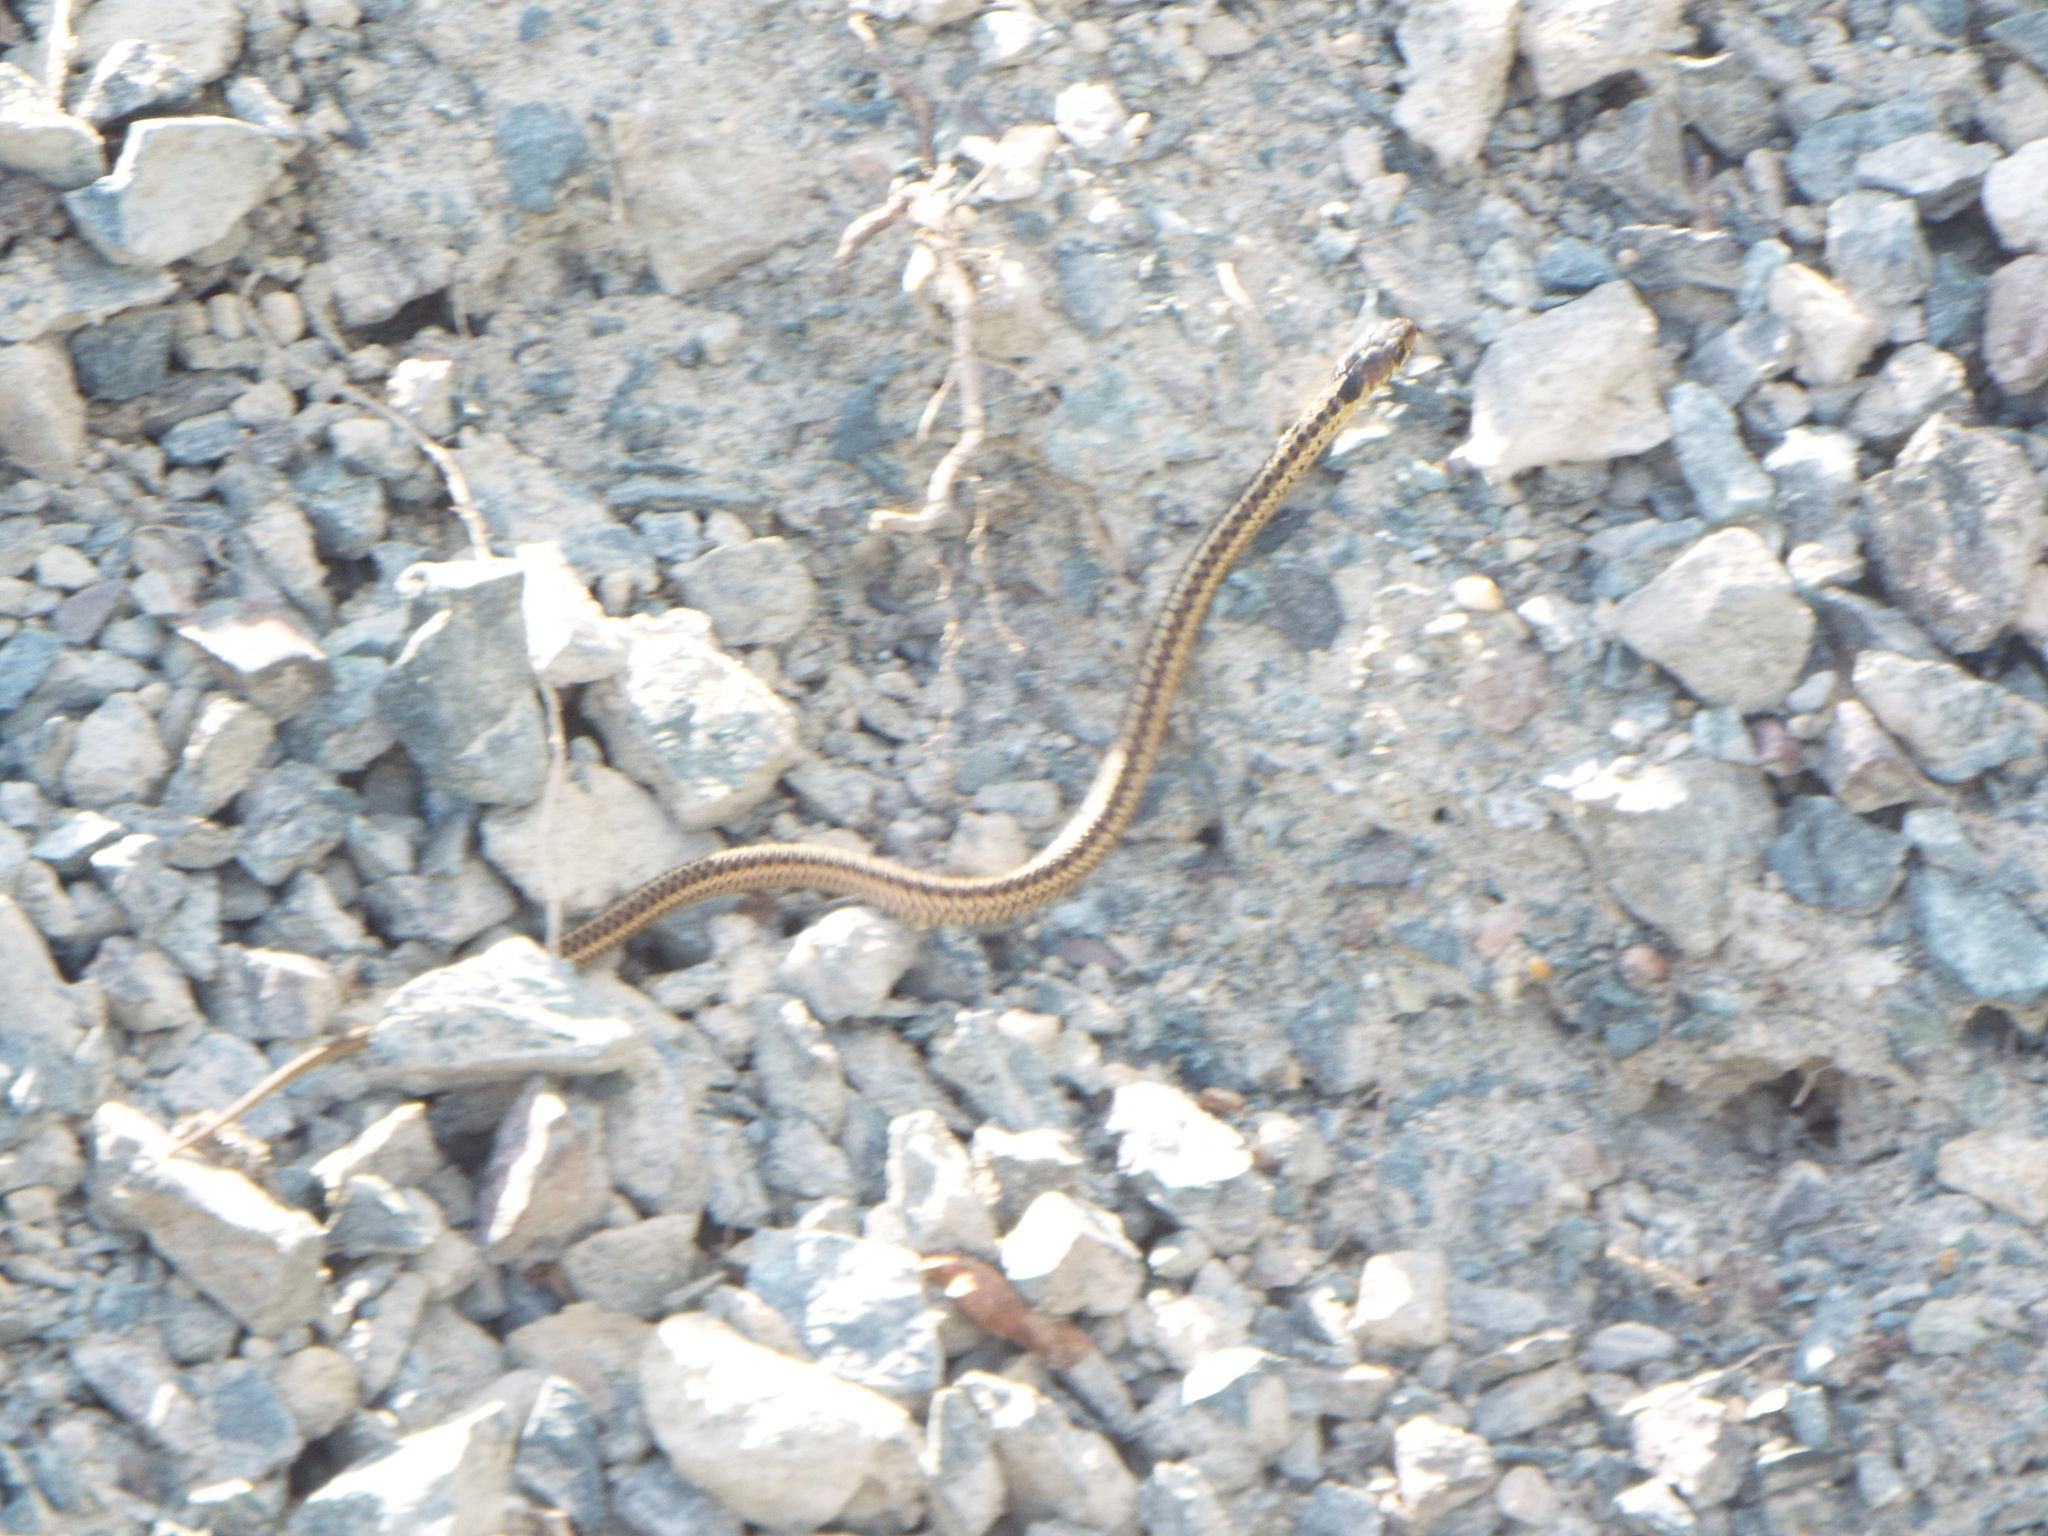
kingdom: Animalia
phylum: Chordata
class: Squamata
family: Colubridae
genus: Thamnophis
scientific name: Thamnophis sirtalis
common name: Common garter snake
